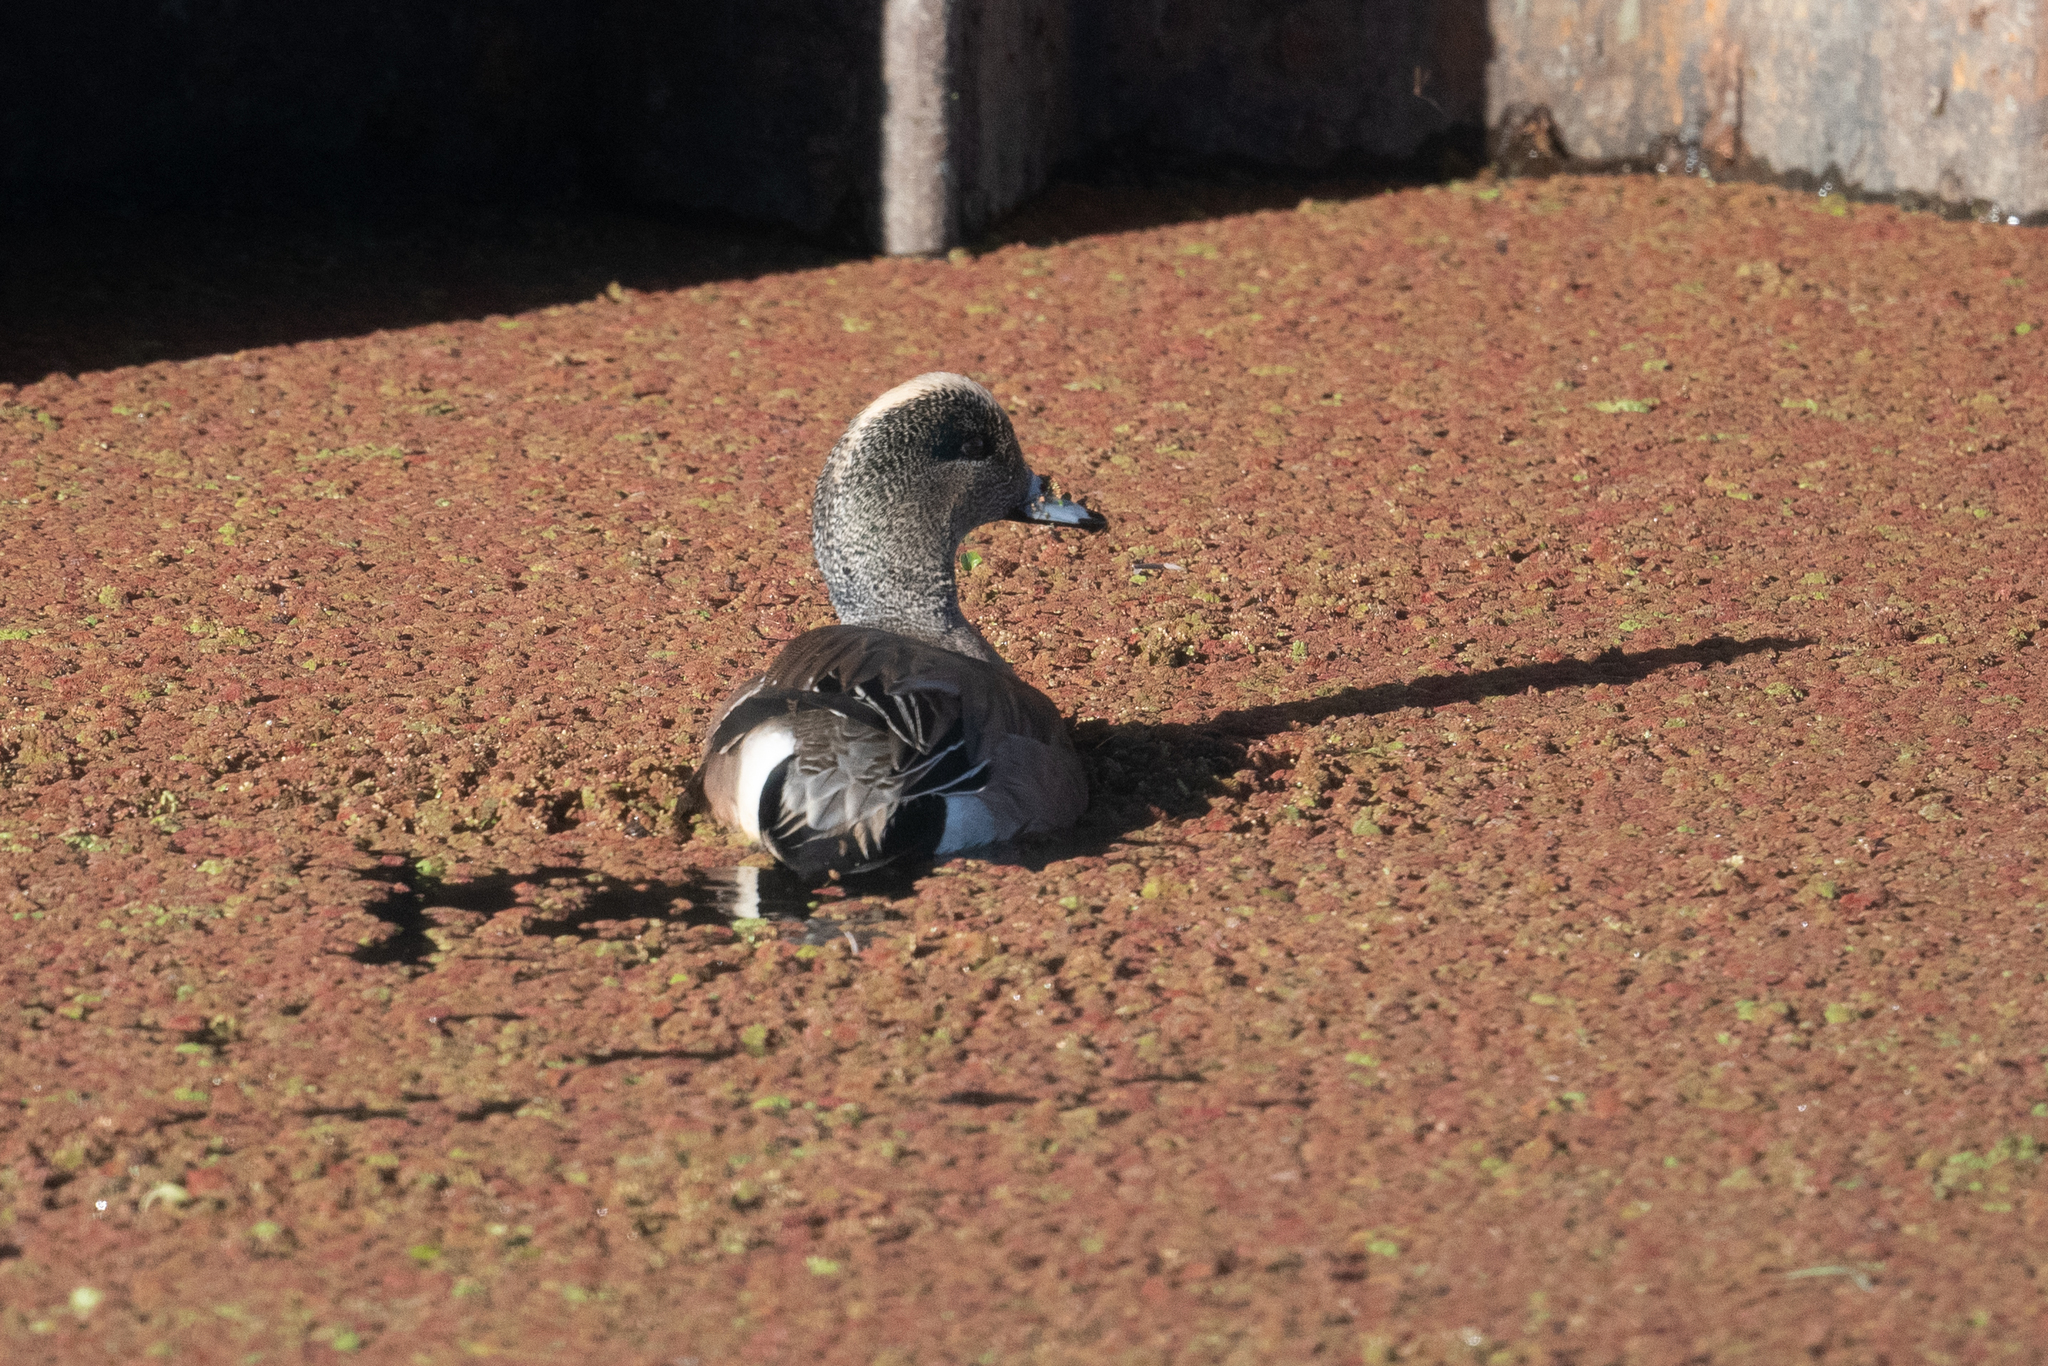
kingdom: Animalia
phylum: Chordata
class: Aves
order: Anseriformes
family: Anatidae
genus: Mareca
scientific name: Mareca americana
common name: American wigeon
